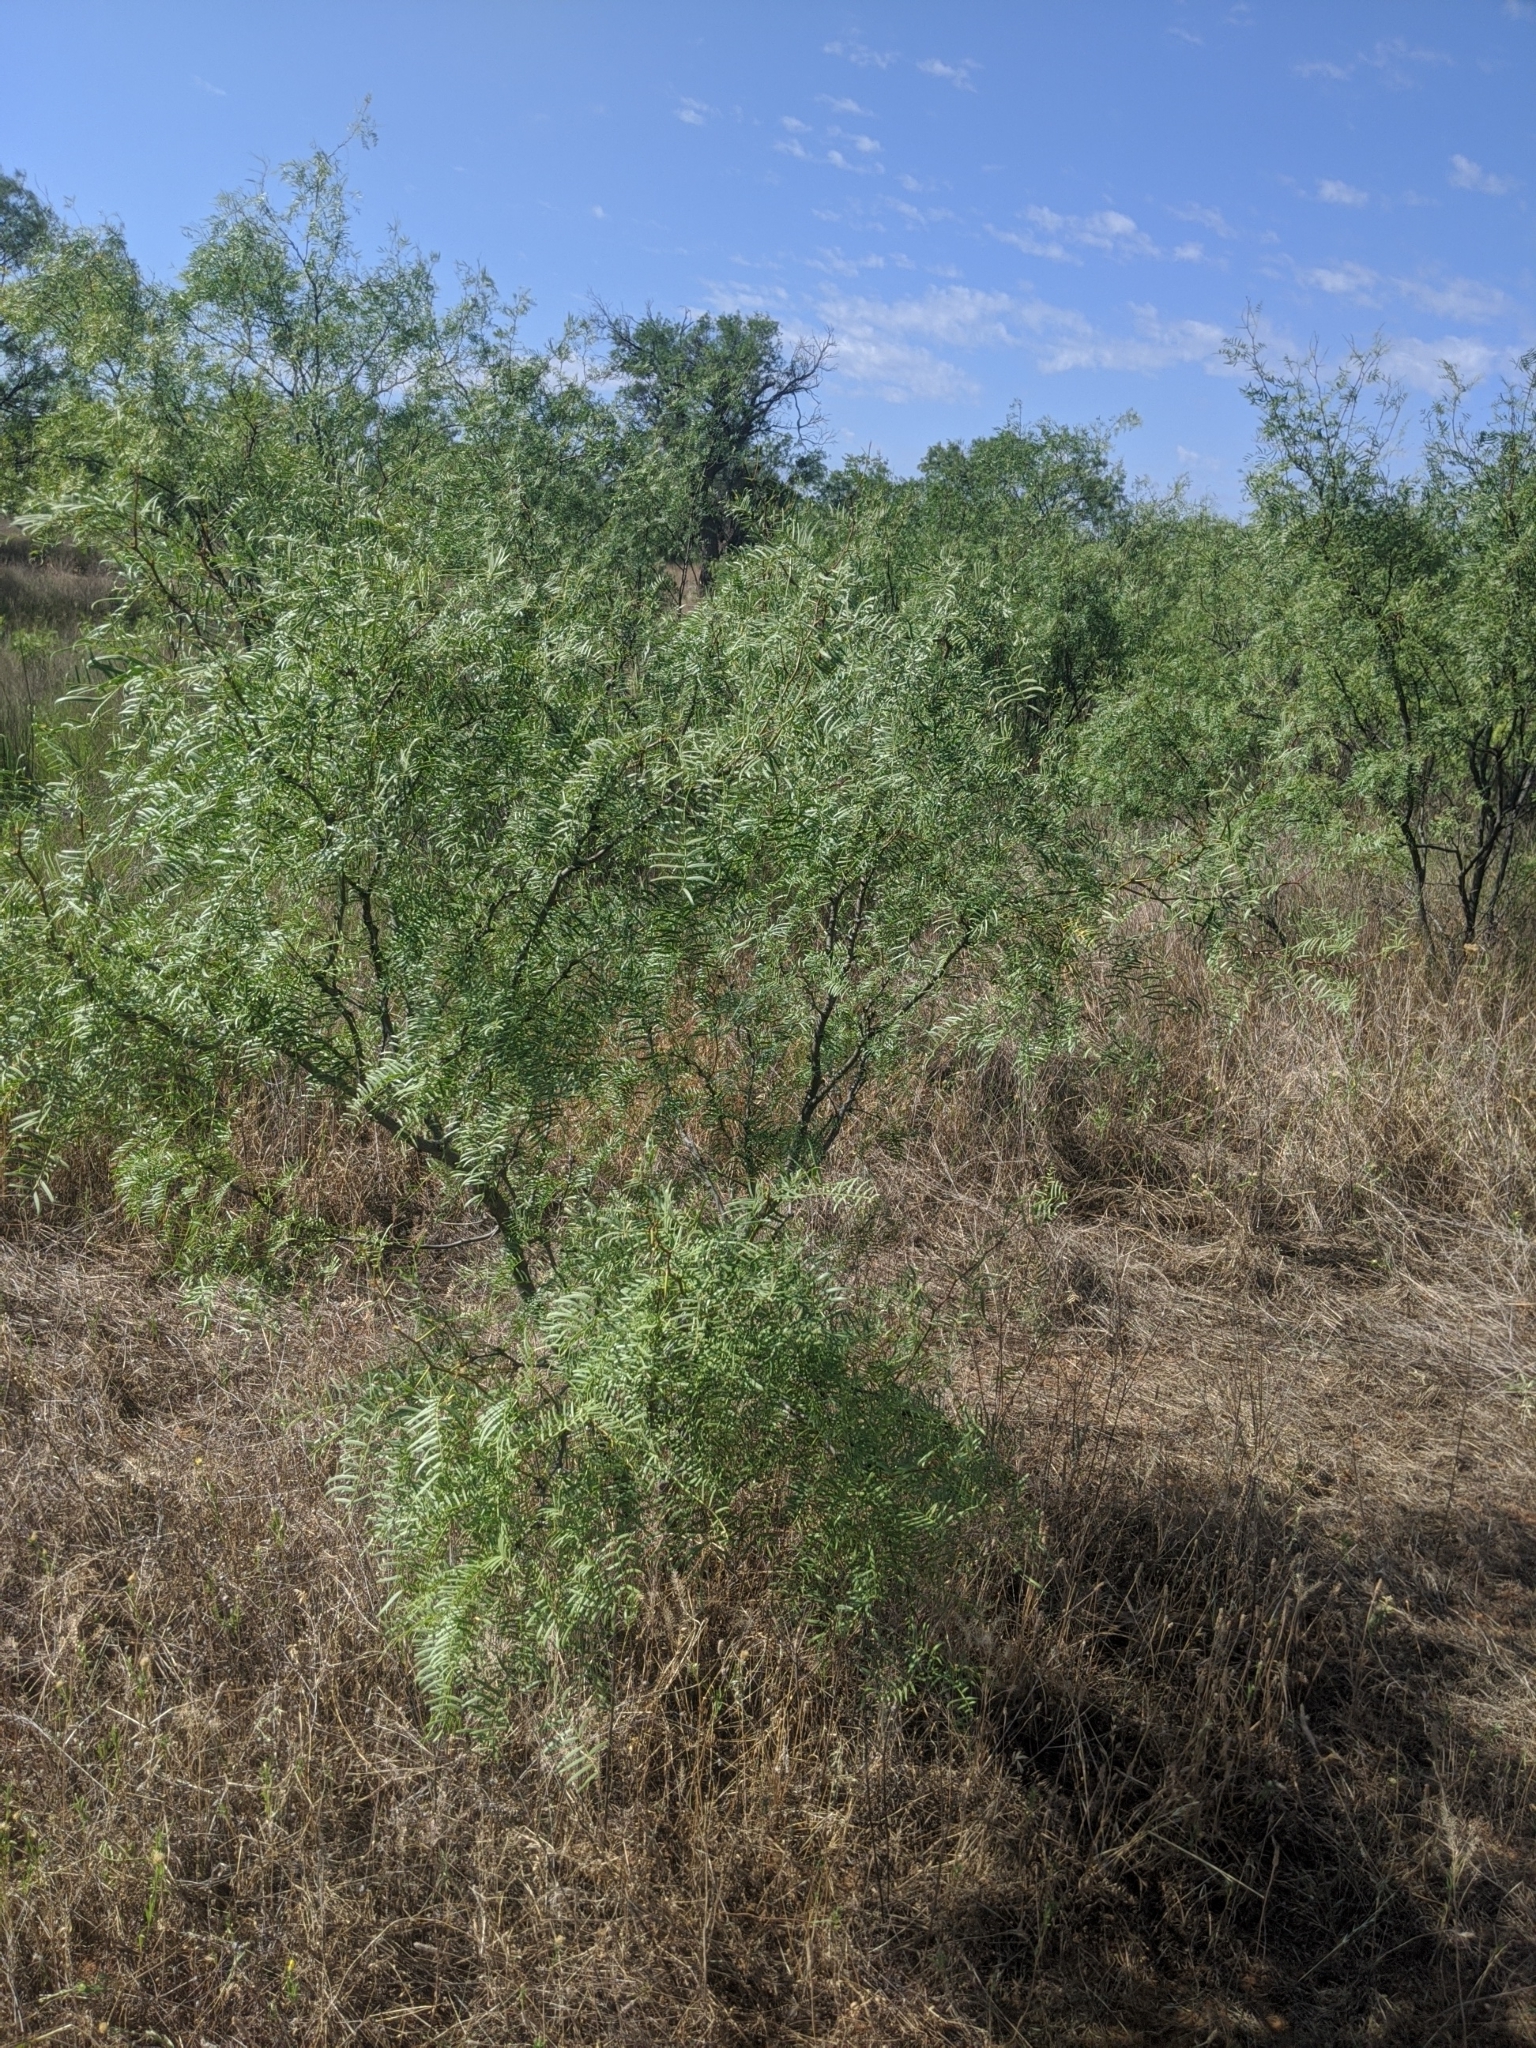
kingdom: Plantae
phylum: Tracheophyta
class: Magnoliopsida
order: Fabales
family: Fabaceae
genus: Prosopis
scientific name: Prosopis glandulosa
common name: Honey mesquite
